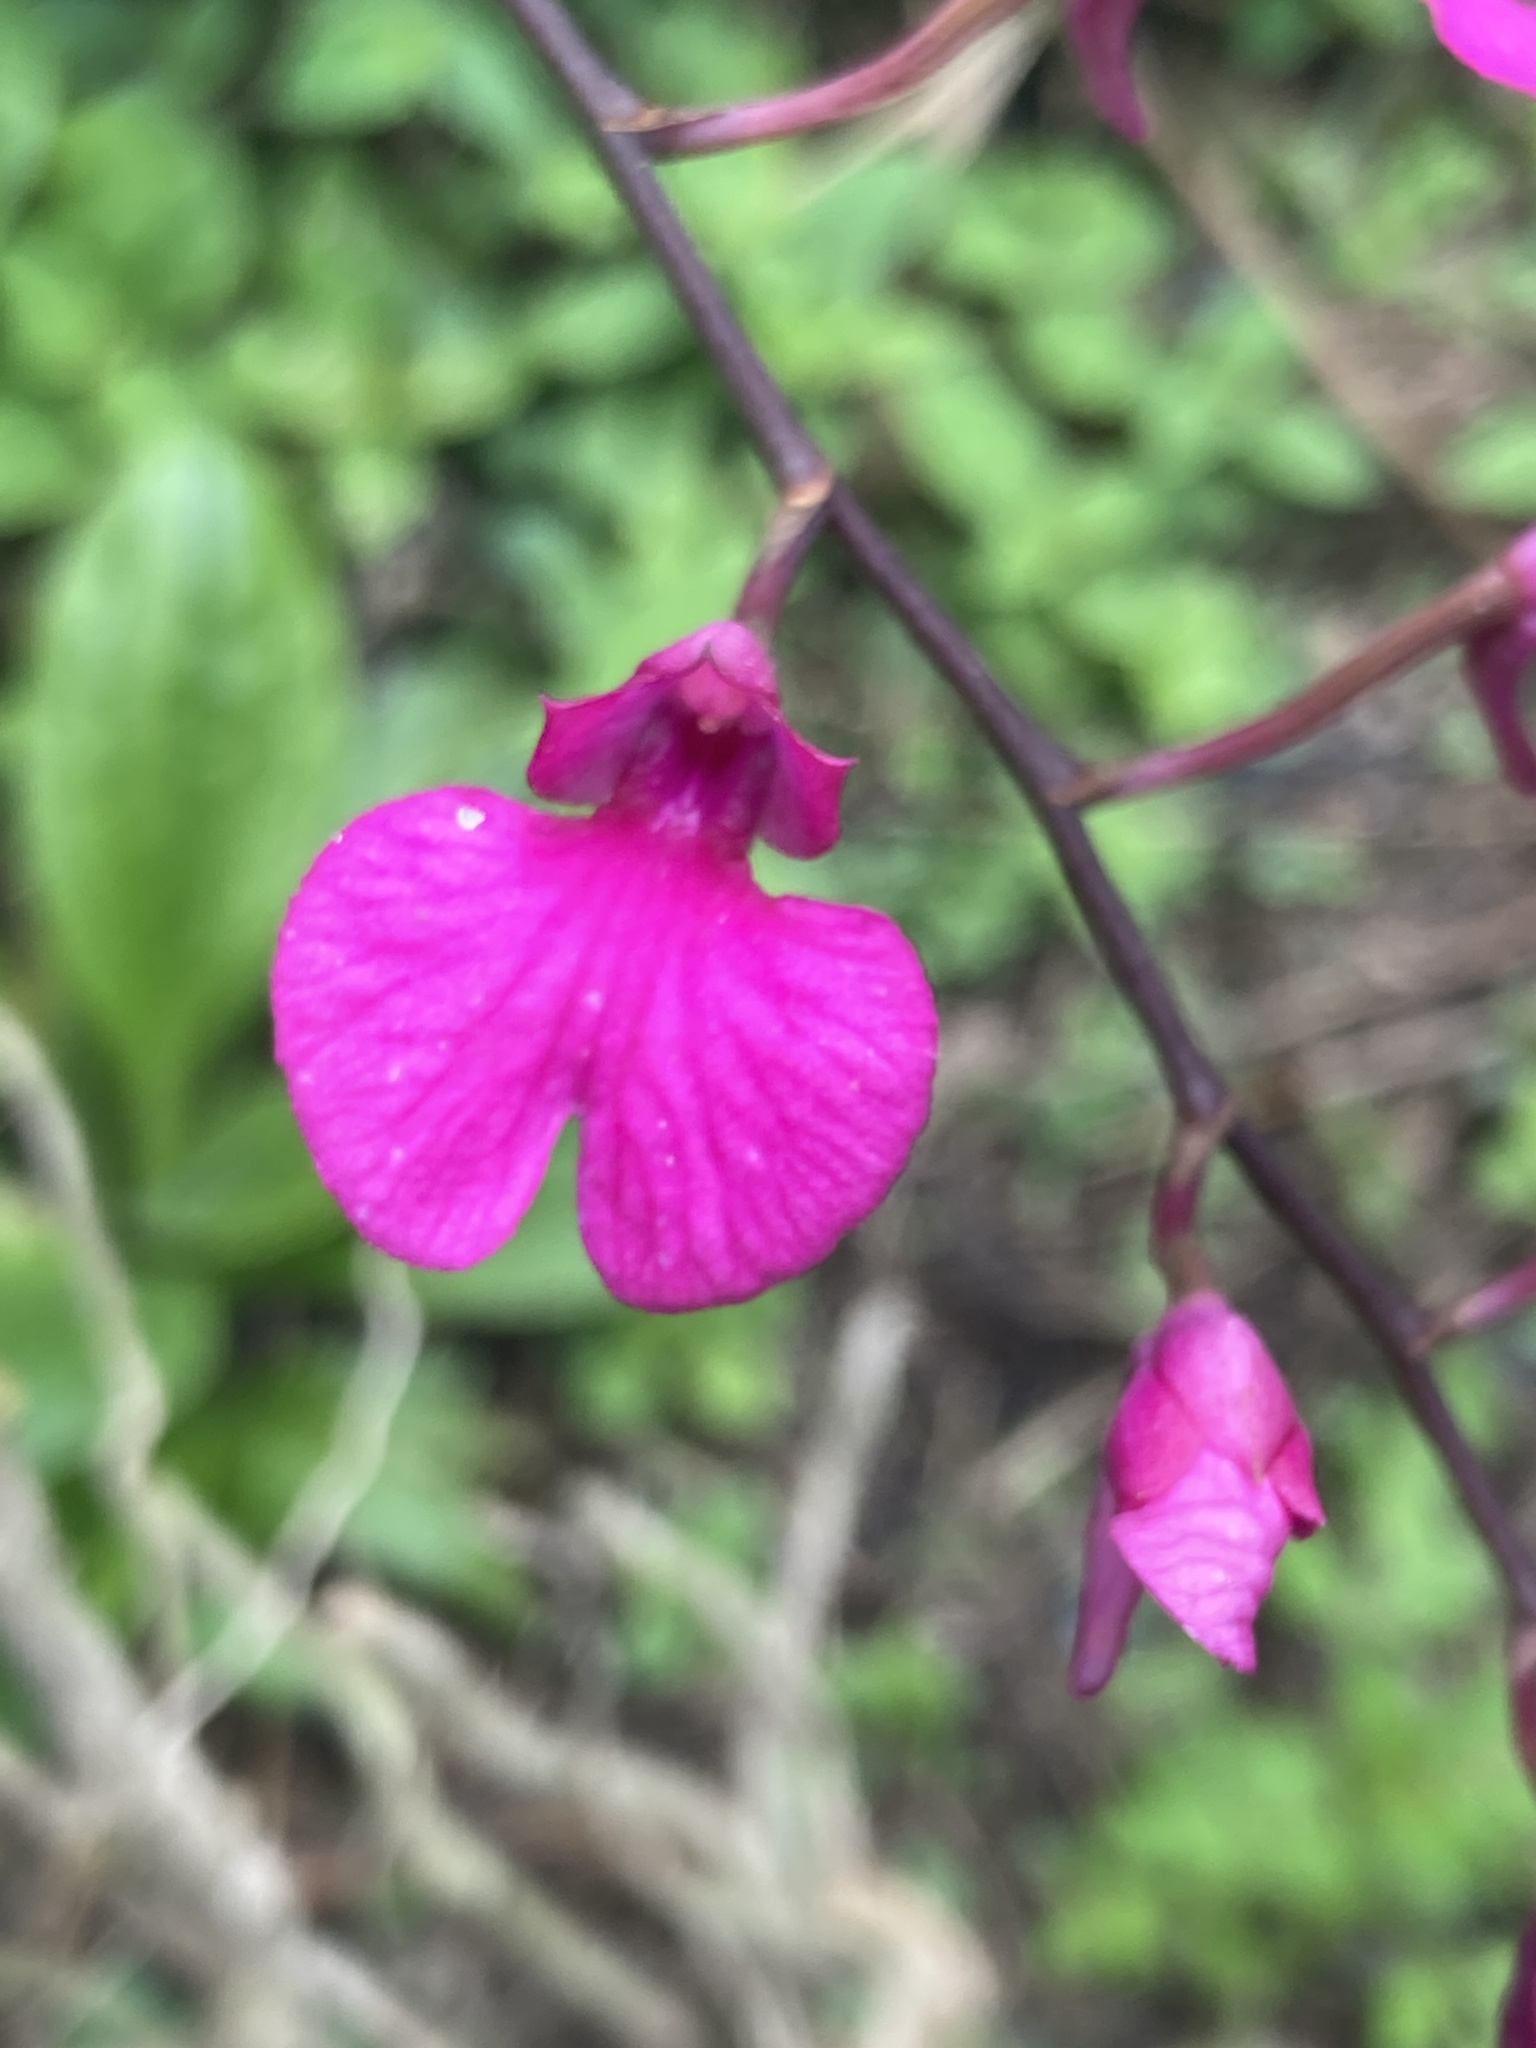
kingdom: Plantae
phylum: Tracheophyta
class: Liliopsida
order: Asparagales
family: Orchidaceae
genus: Comparettia
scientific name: Comparettia falcata
